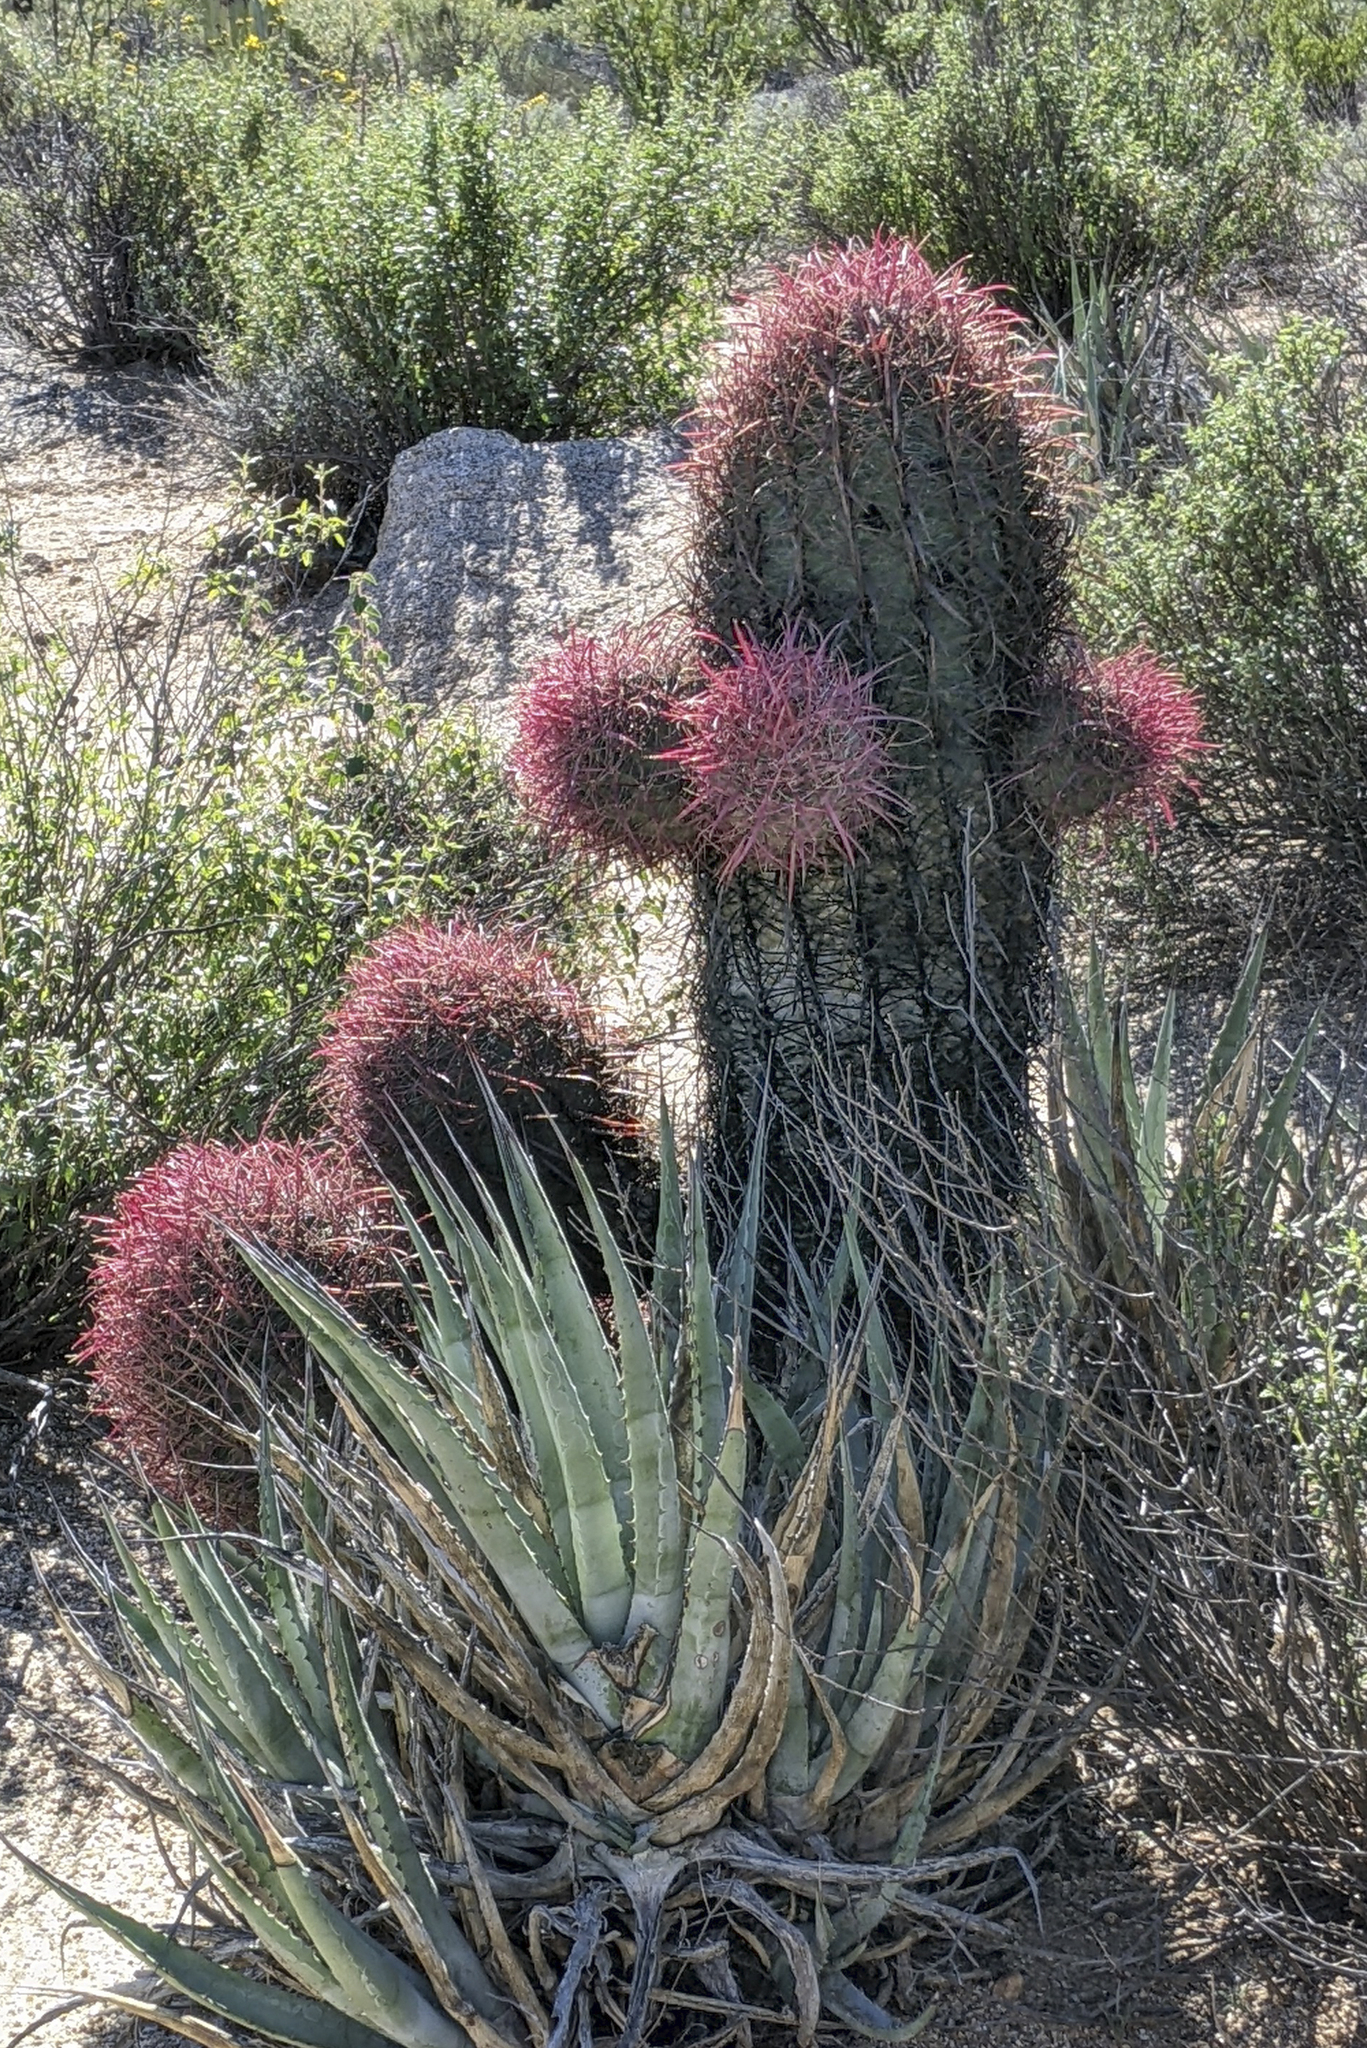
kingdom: Plantae
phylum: Tracheophyta
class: Magnoliopsida
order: Caryophyllales
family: Cactaceae
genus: Ferocactus
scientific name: Ferocactus gracilis
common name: Fire barrel cactus
